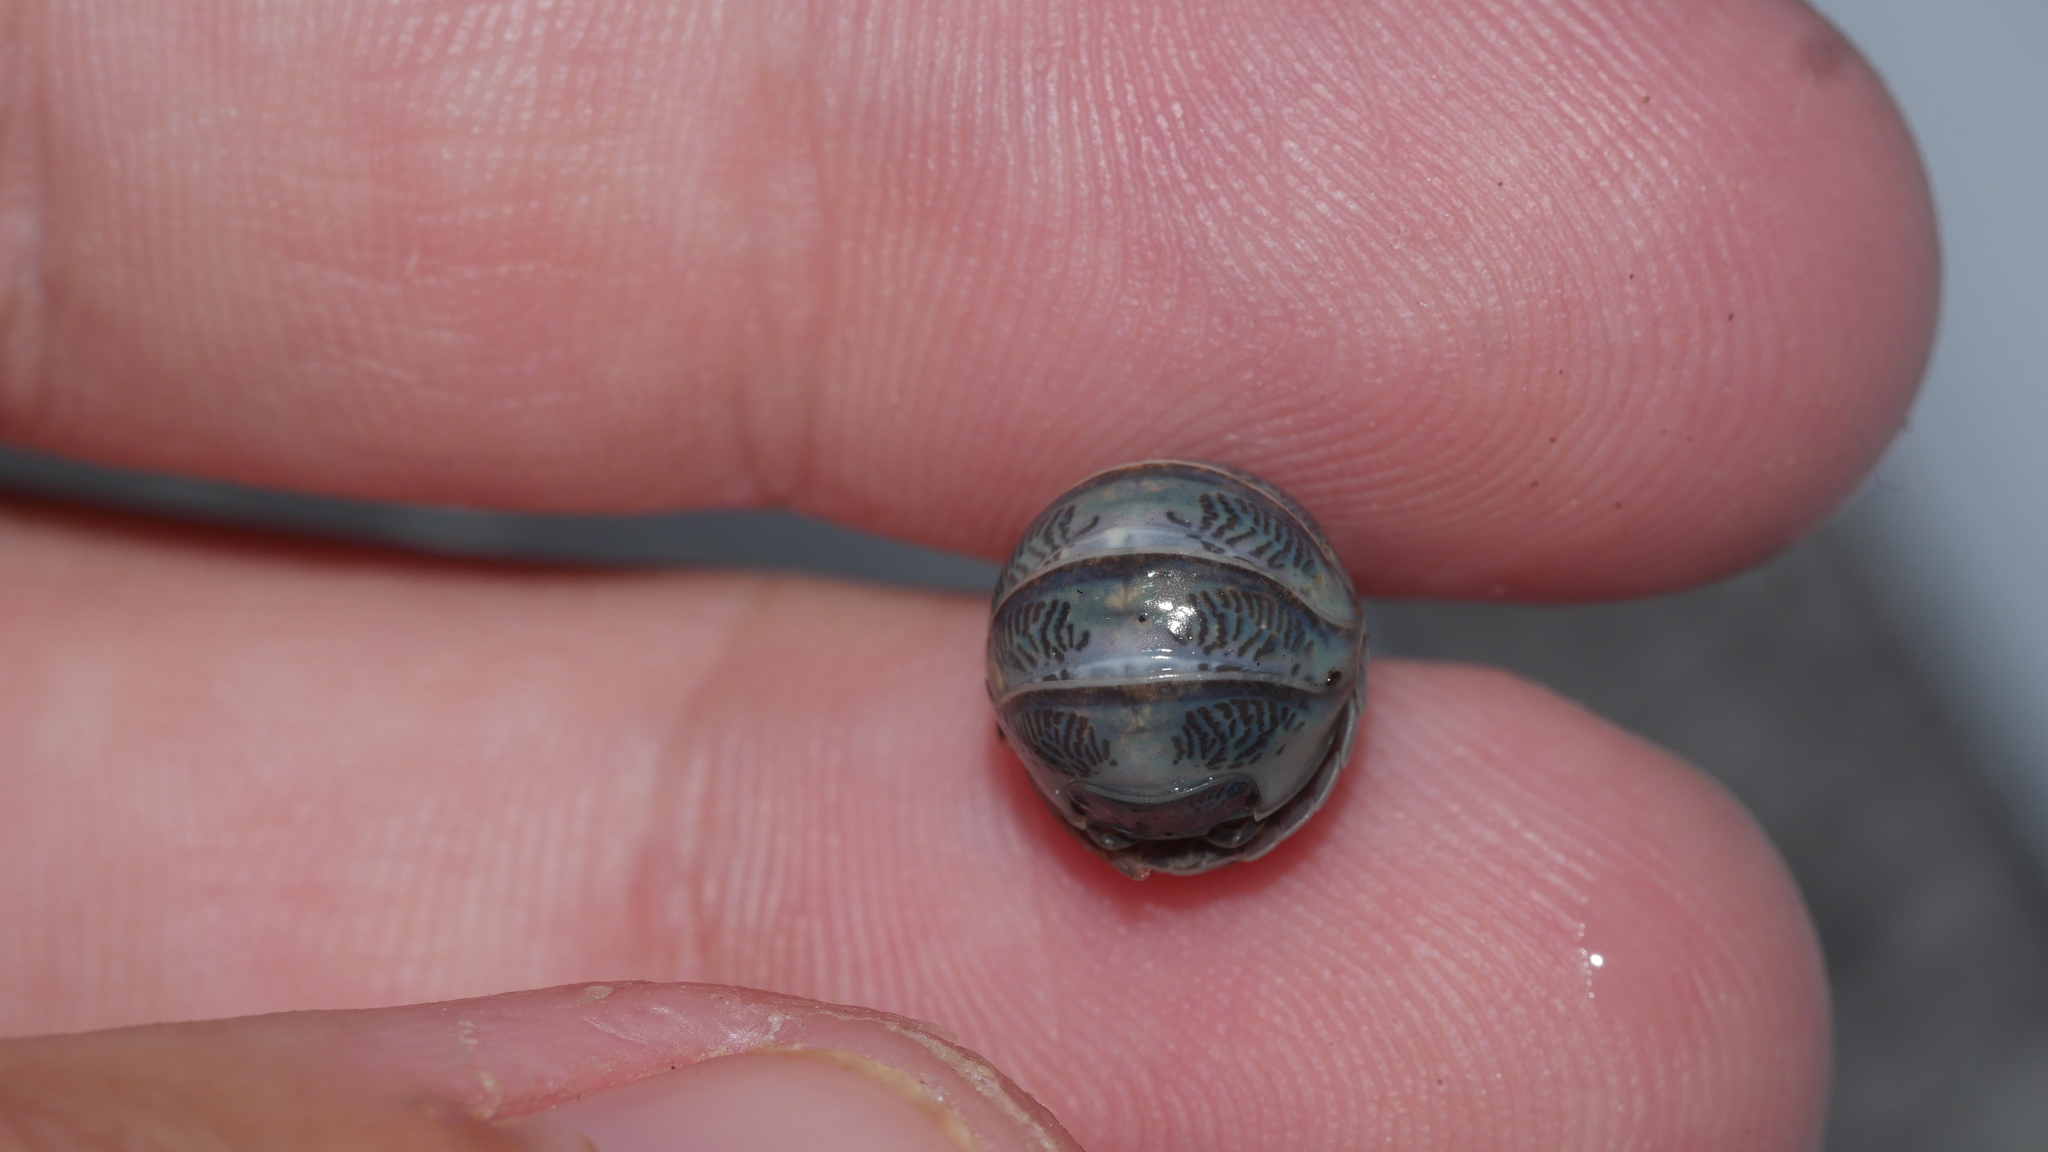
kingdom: Animalia
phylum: Arthropoda
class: Malacostraca
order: Isopoda
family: Armadillidiidae
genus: Armadillidium
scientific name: Armadillidium vulgare
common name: Common pill woodlouse
